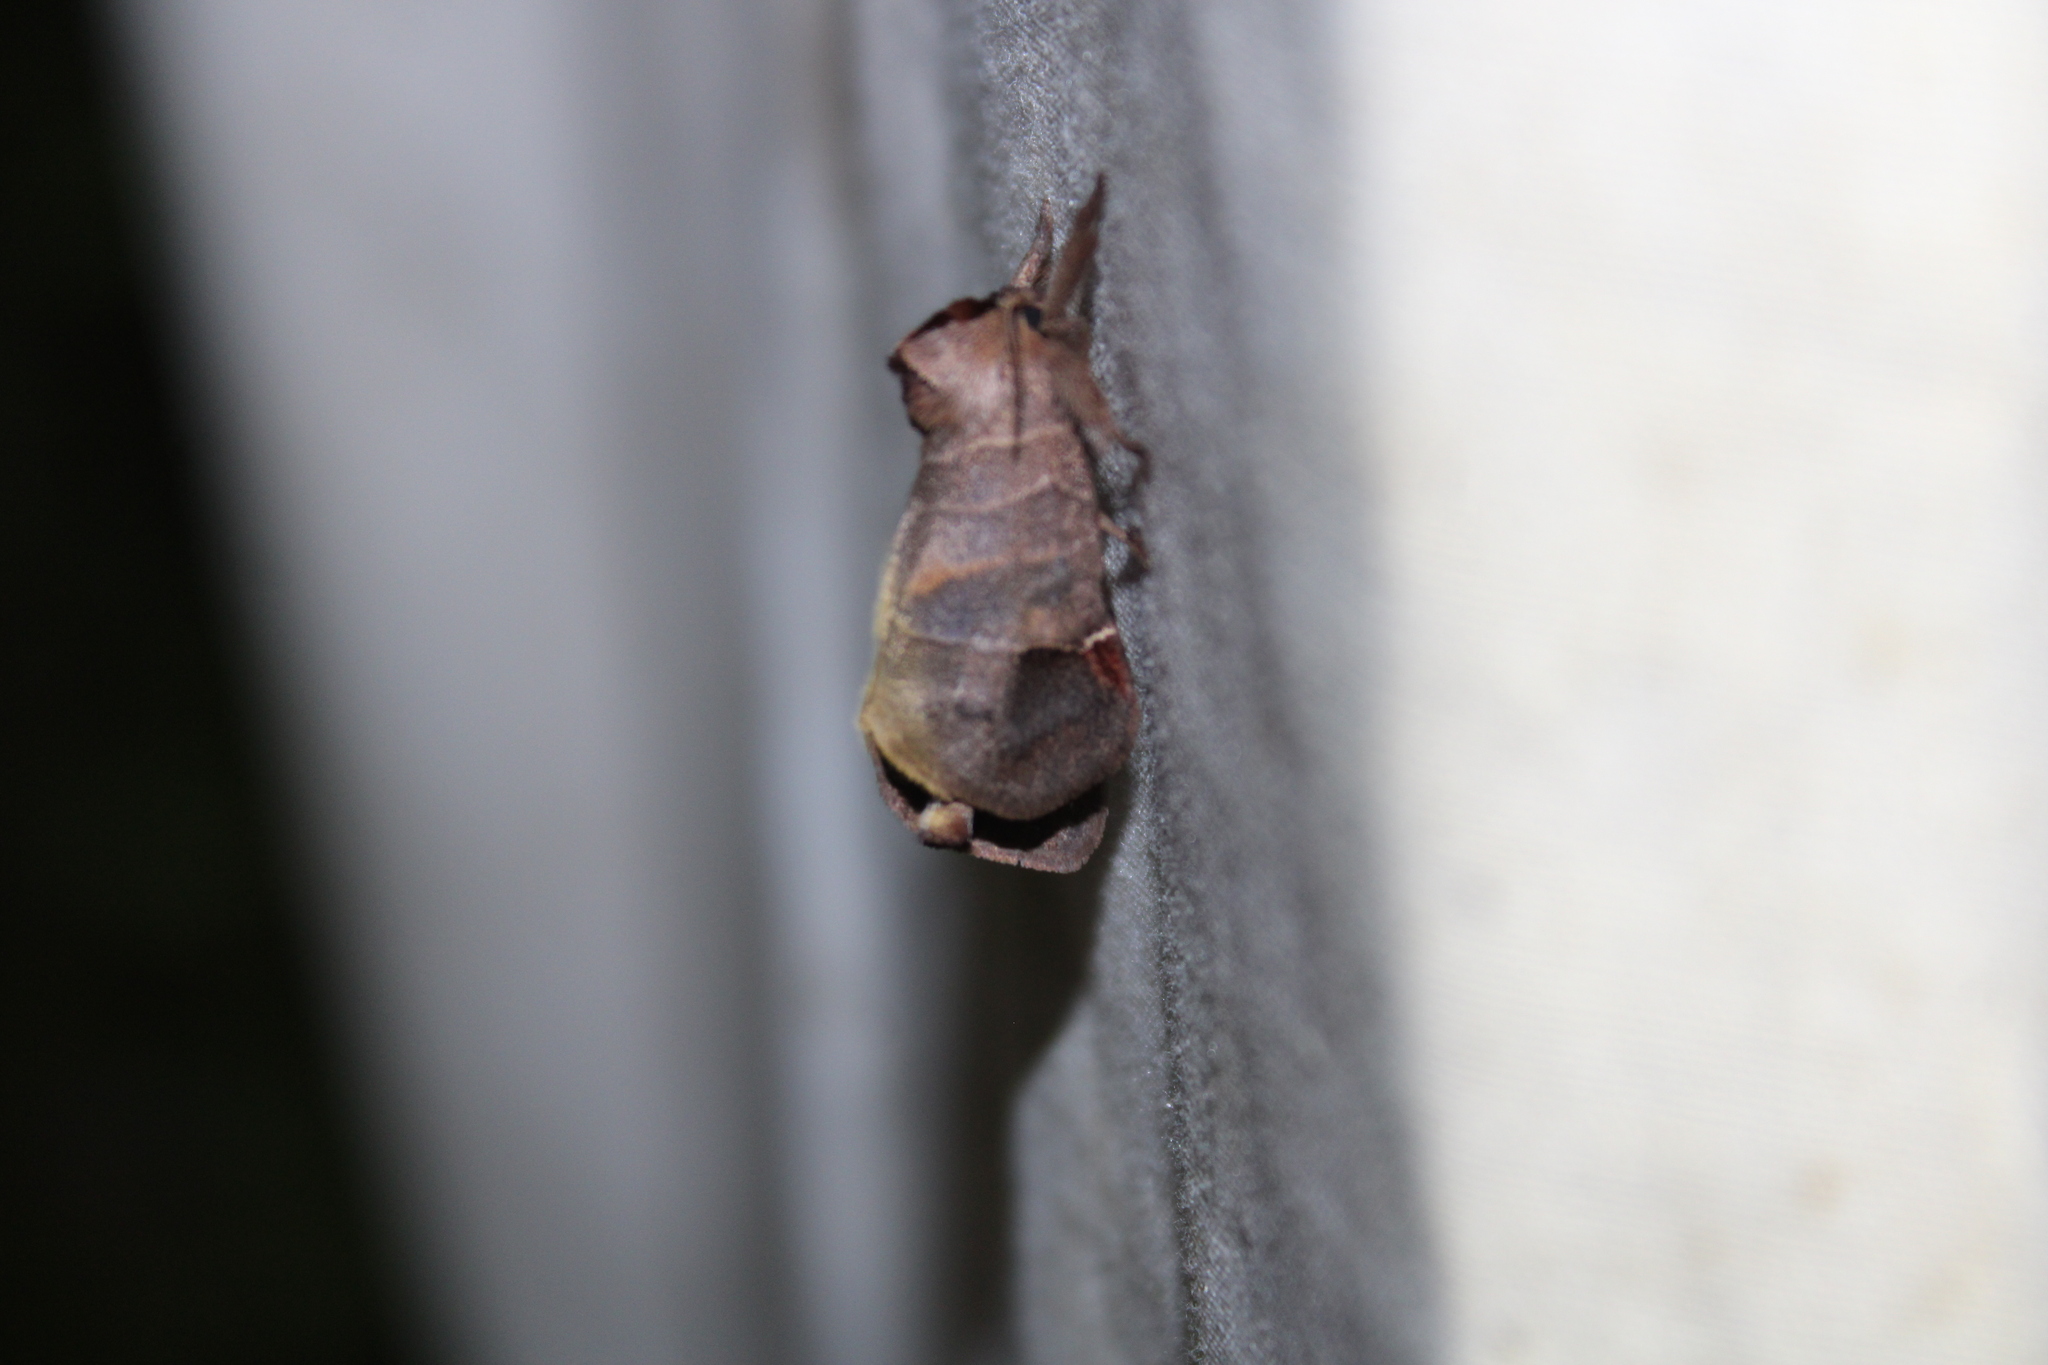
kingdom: Animalia
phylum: Arthropoda
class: Insecta
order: Lepidoptera
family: Notodontidae
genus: Clostera
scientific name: Clostera albosigma
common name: Sigmoid prominent
